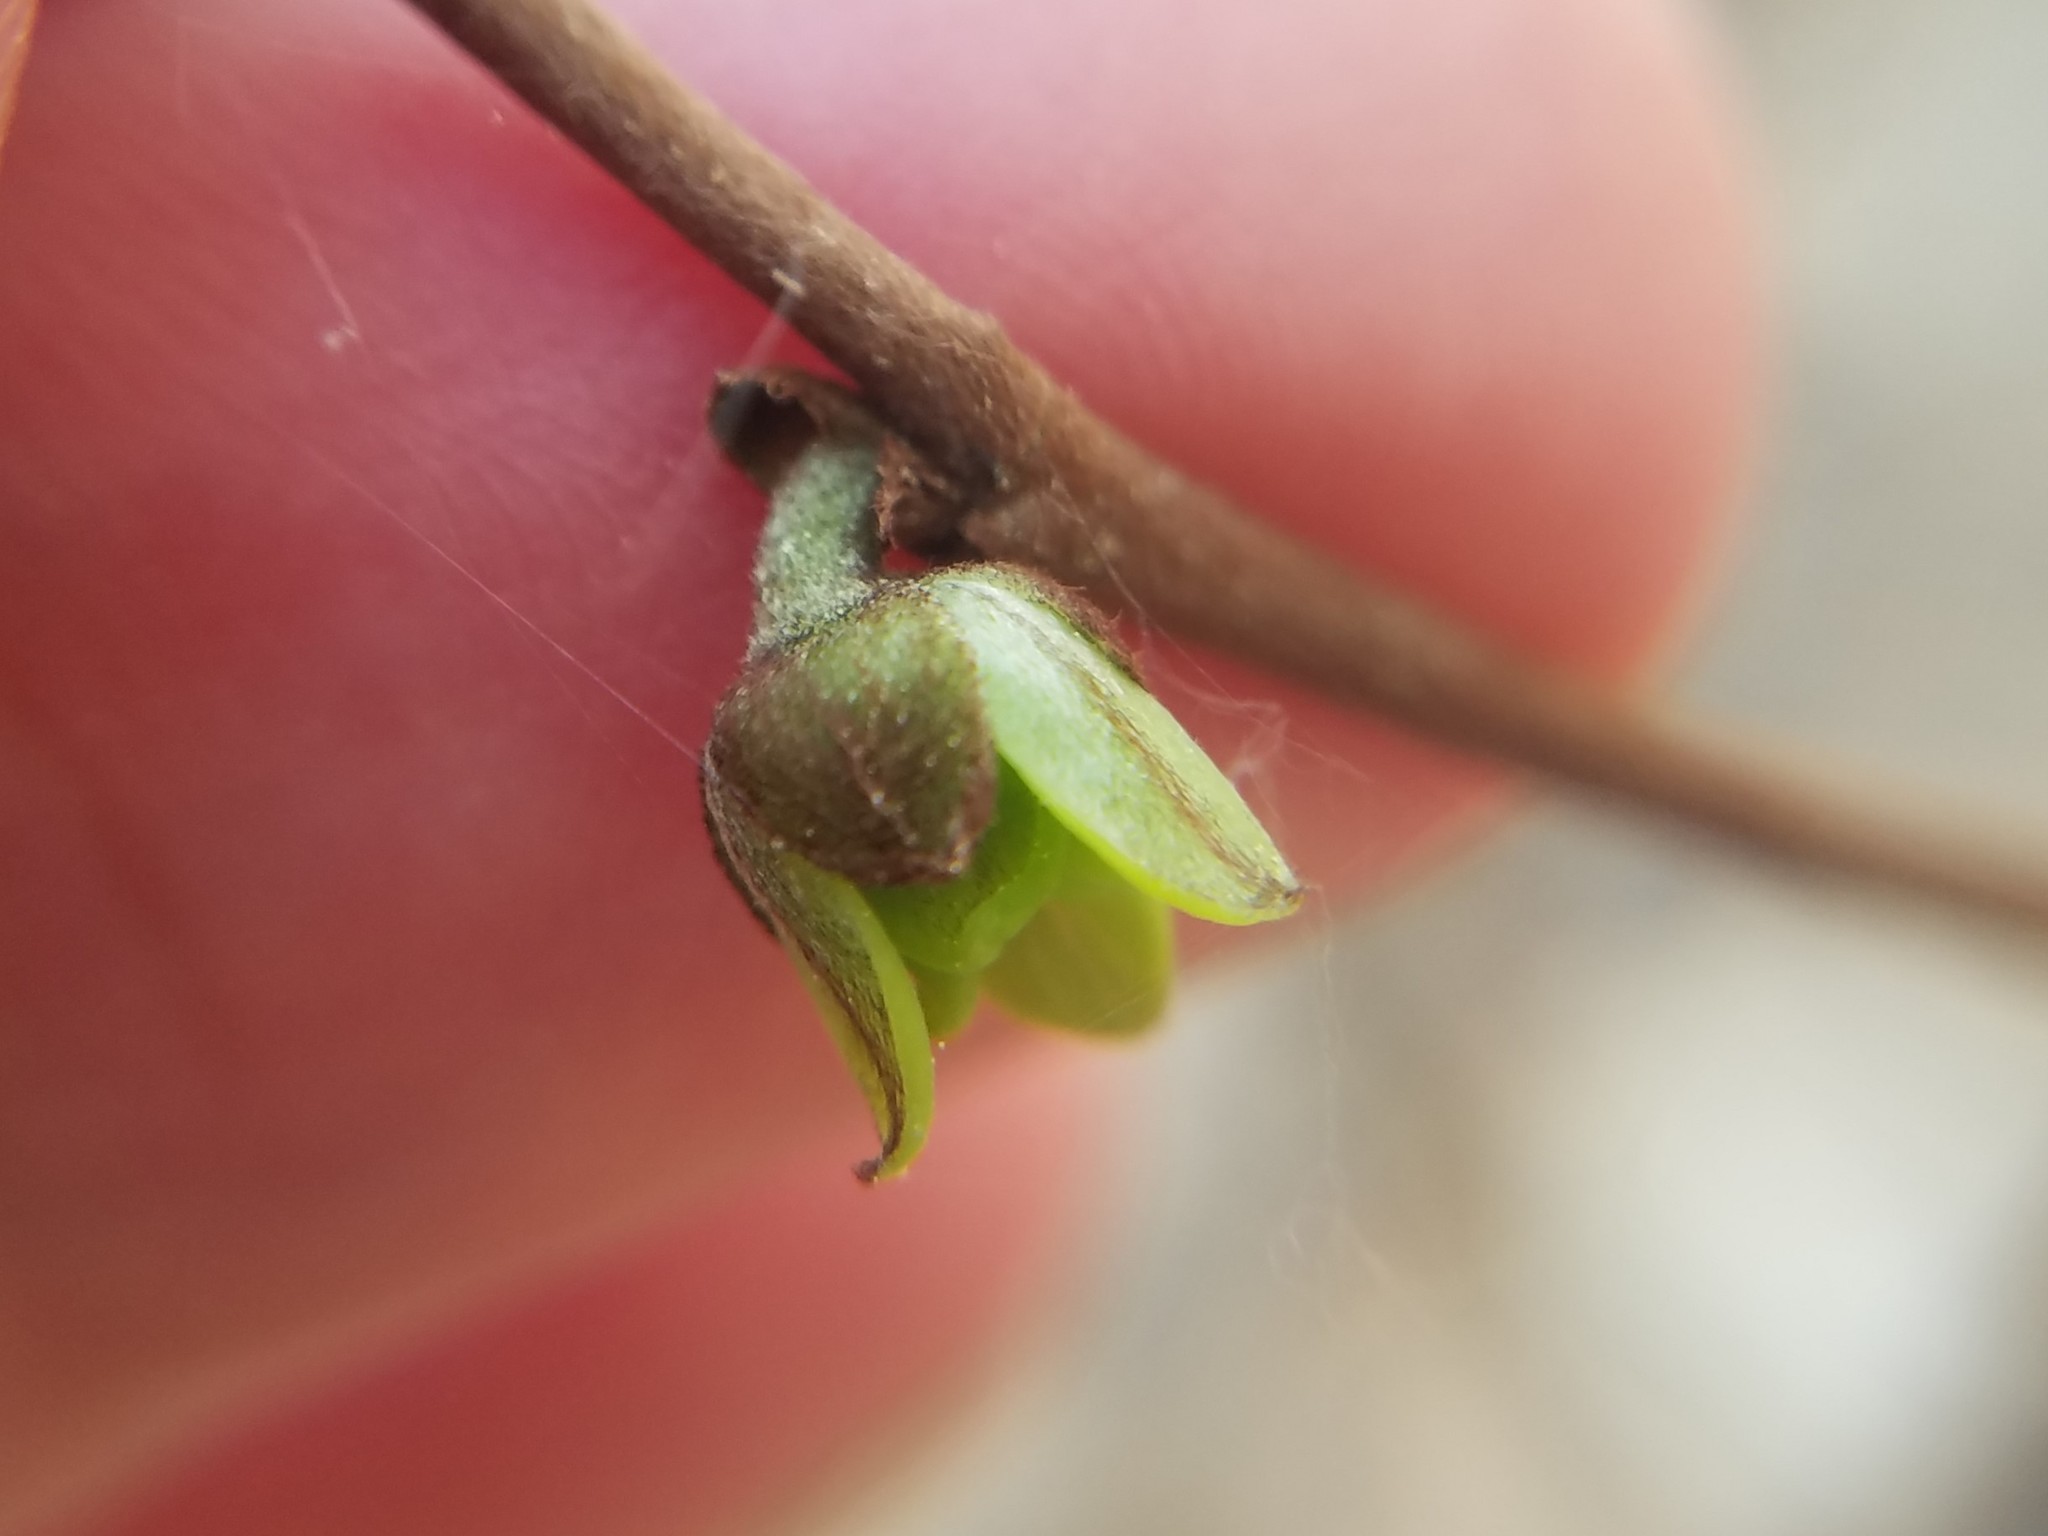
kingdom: Plantae
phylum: Tracheophyta
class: Magnoliopsida
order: Magnoliales
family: Annonaceae
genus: Asimina
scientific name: Asimina parviflora
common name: Dwarf pawpaw
